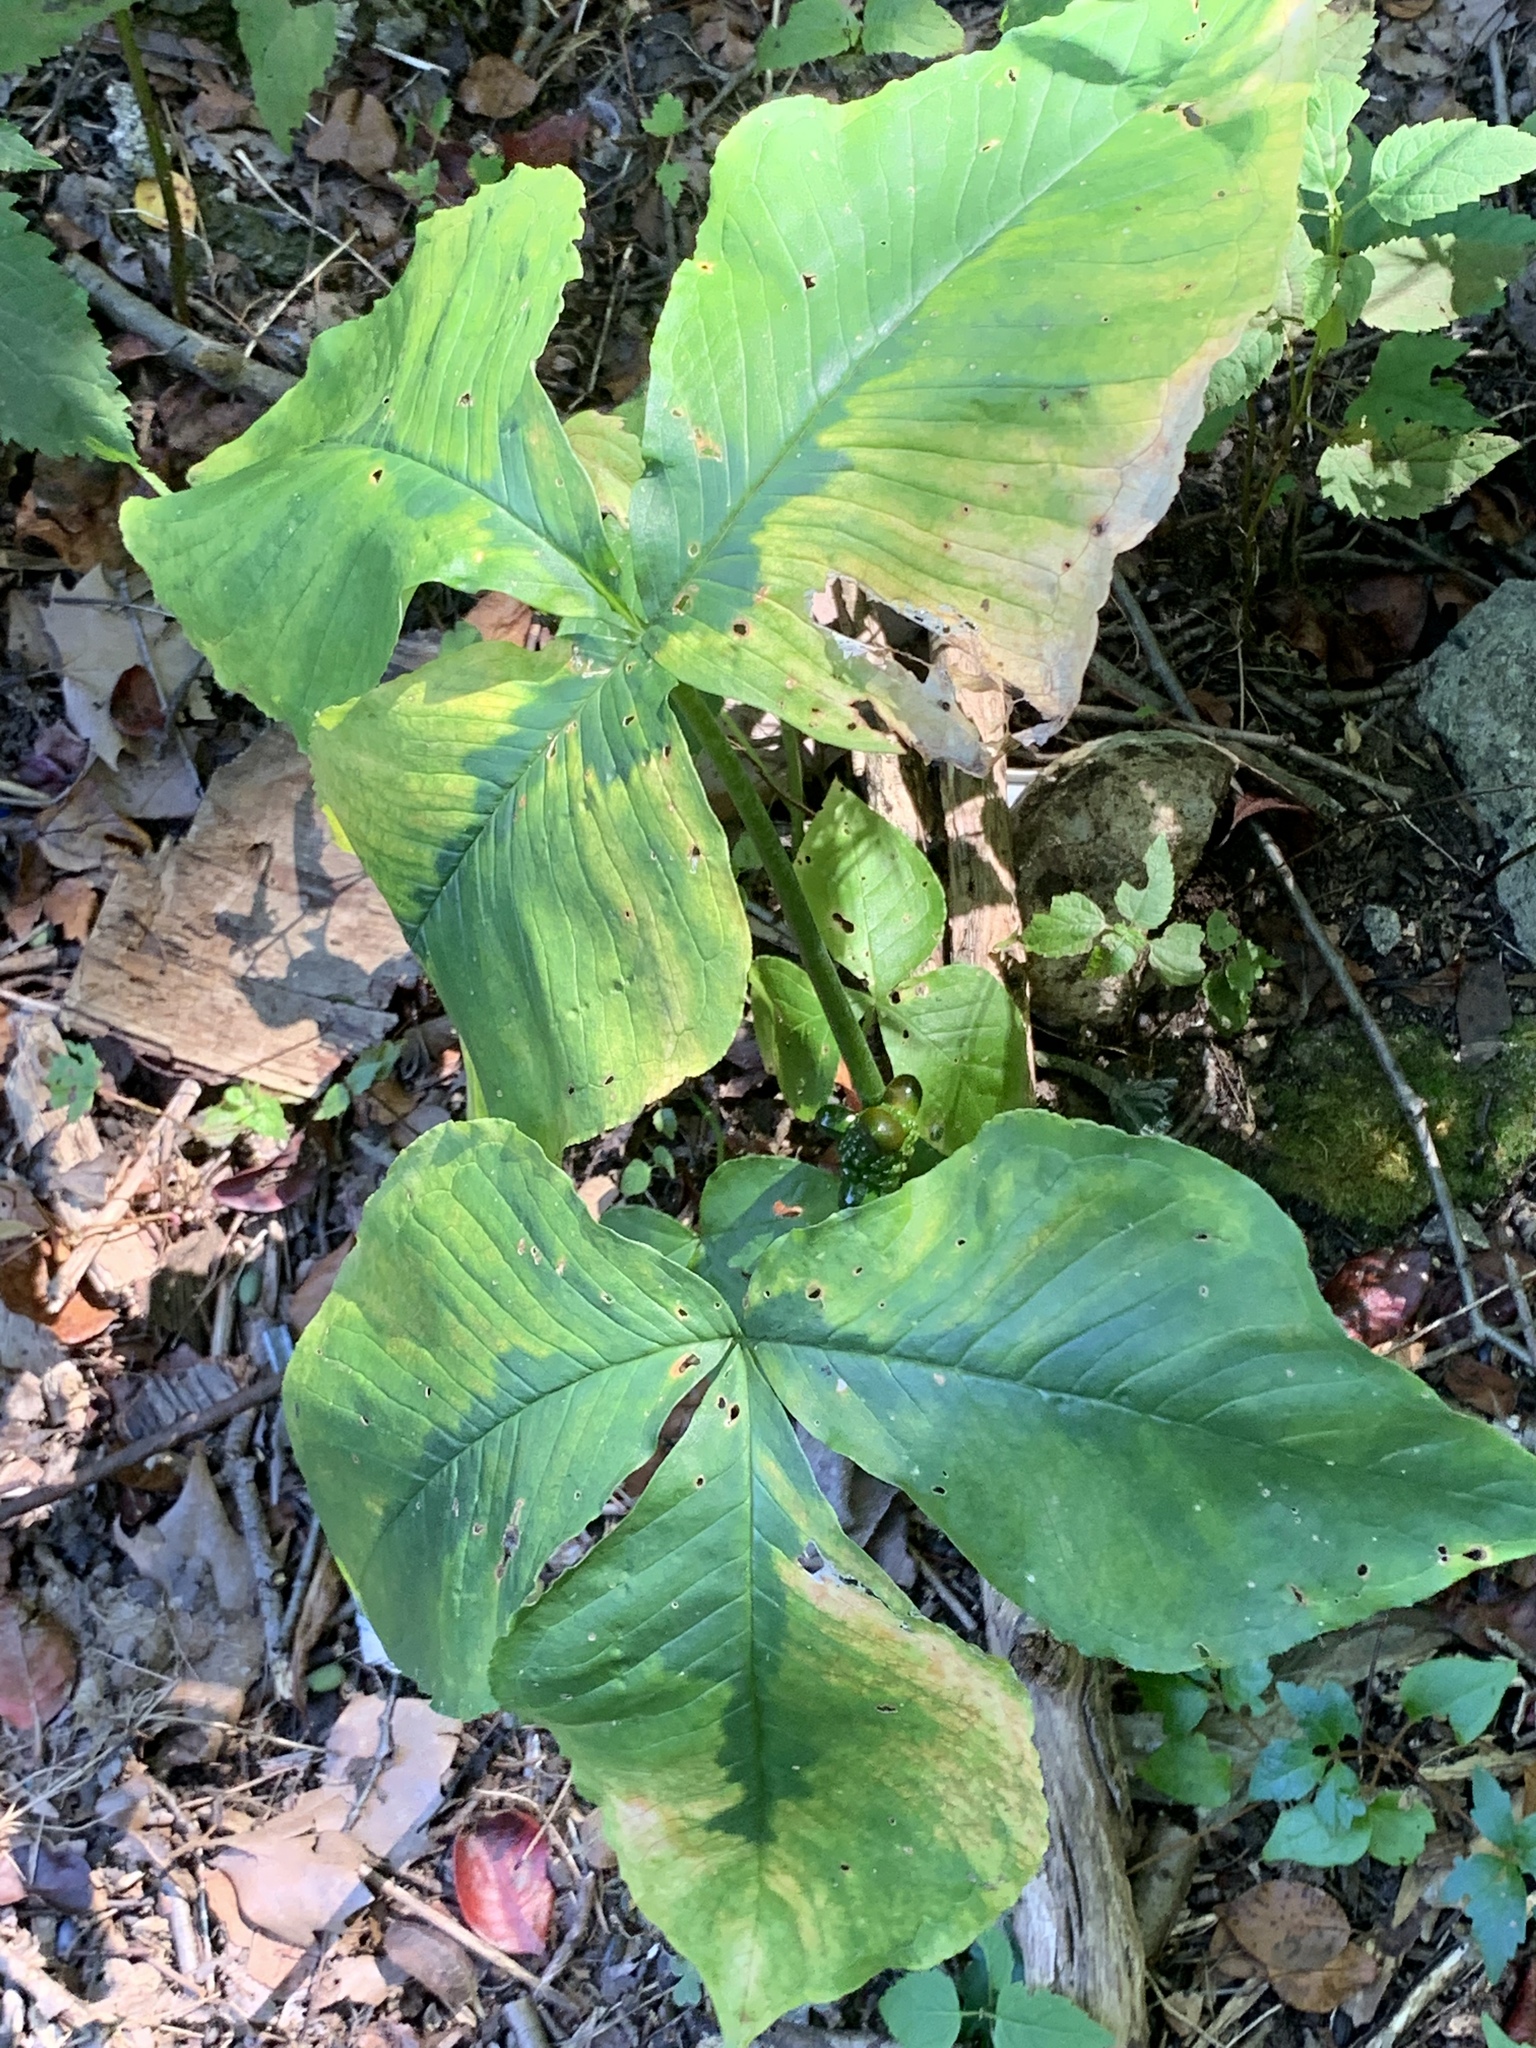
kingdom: Plantae
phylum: Tracheophyta
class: Liliopsida
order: Alismatales
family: Araceae
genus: Arisaema
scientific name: Arisaema triphyllum
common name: Jack-in-the-pulpit
